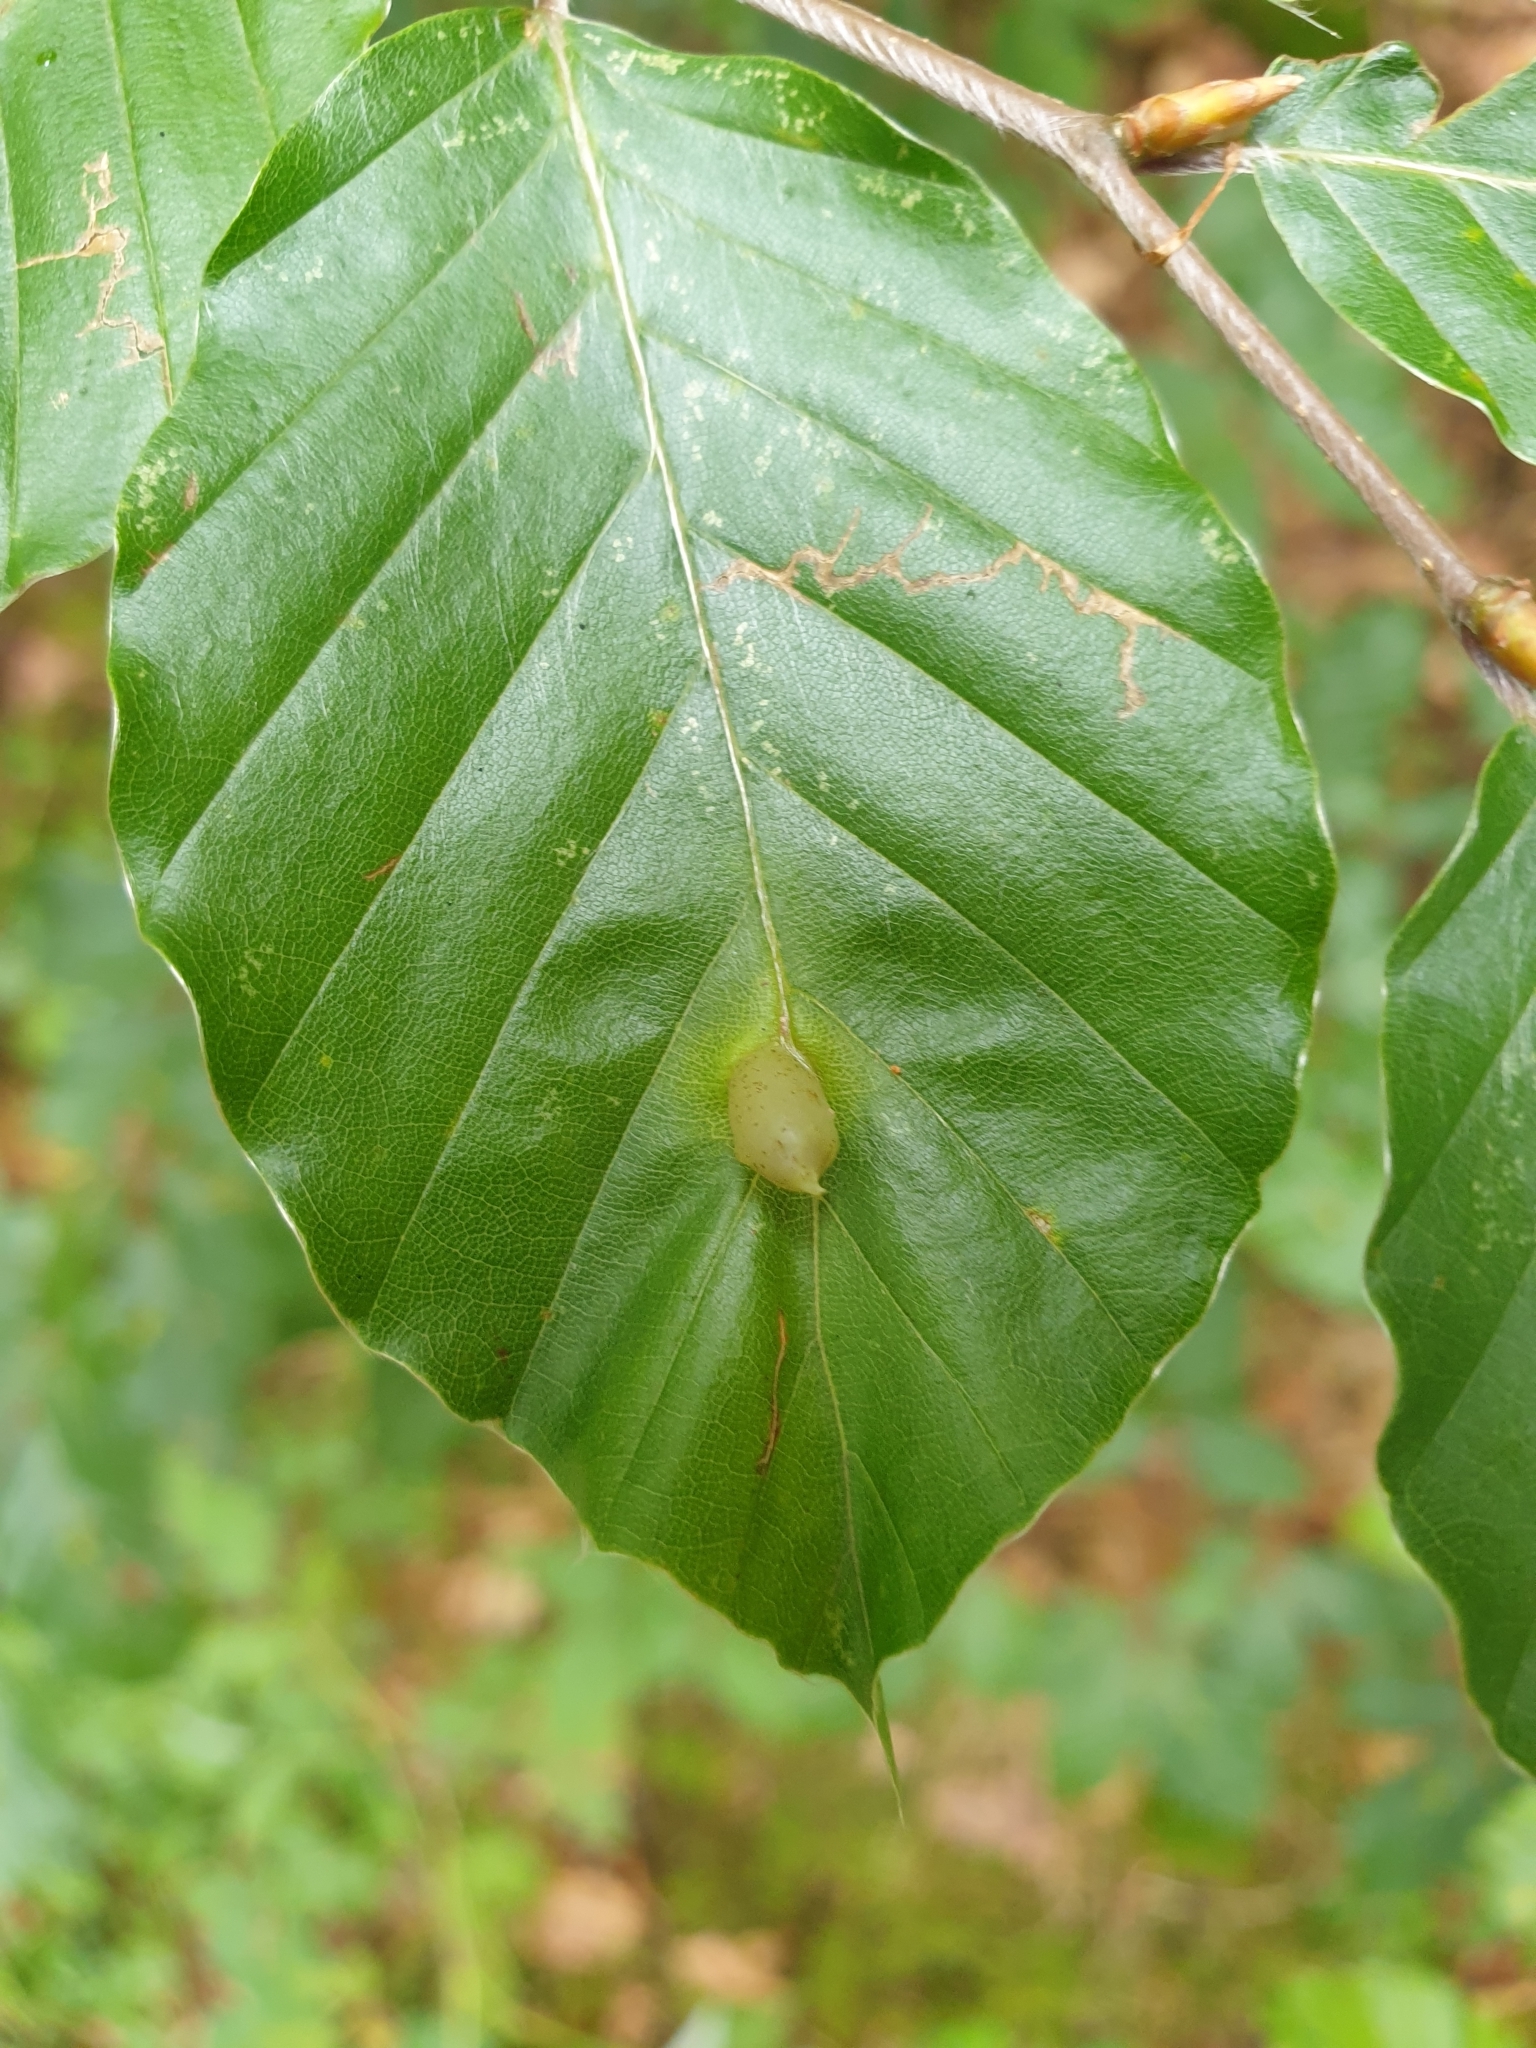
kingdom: Animalia
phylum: Arthropoda
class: Insecta
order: Diptera
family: Cecidomyiidae
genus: Mikiola
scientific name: Mikiola fagi
